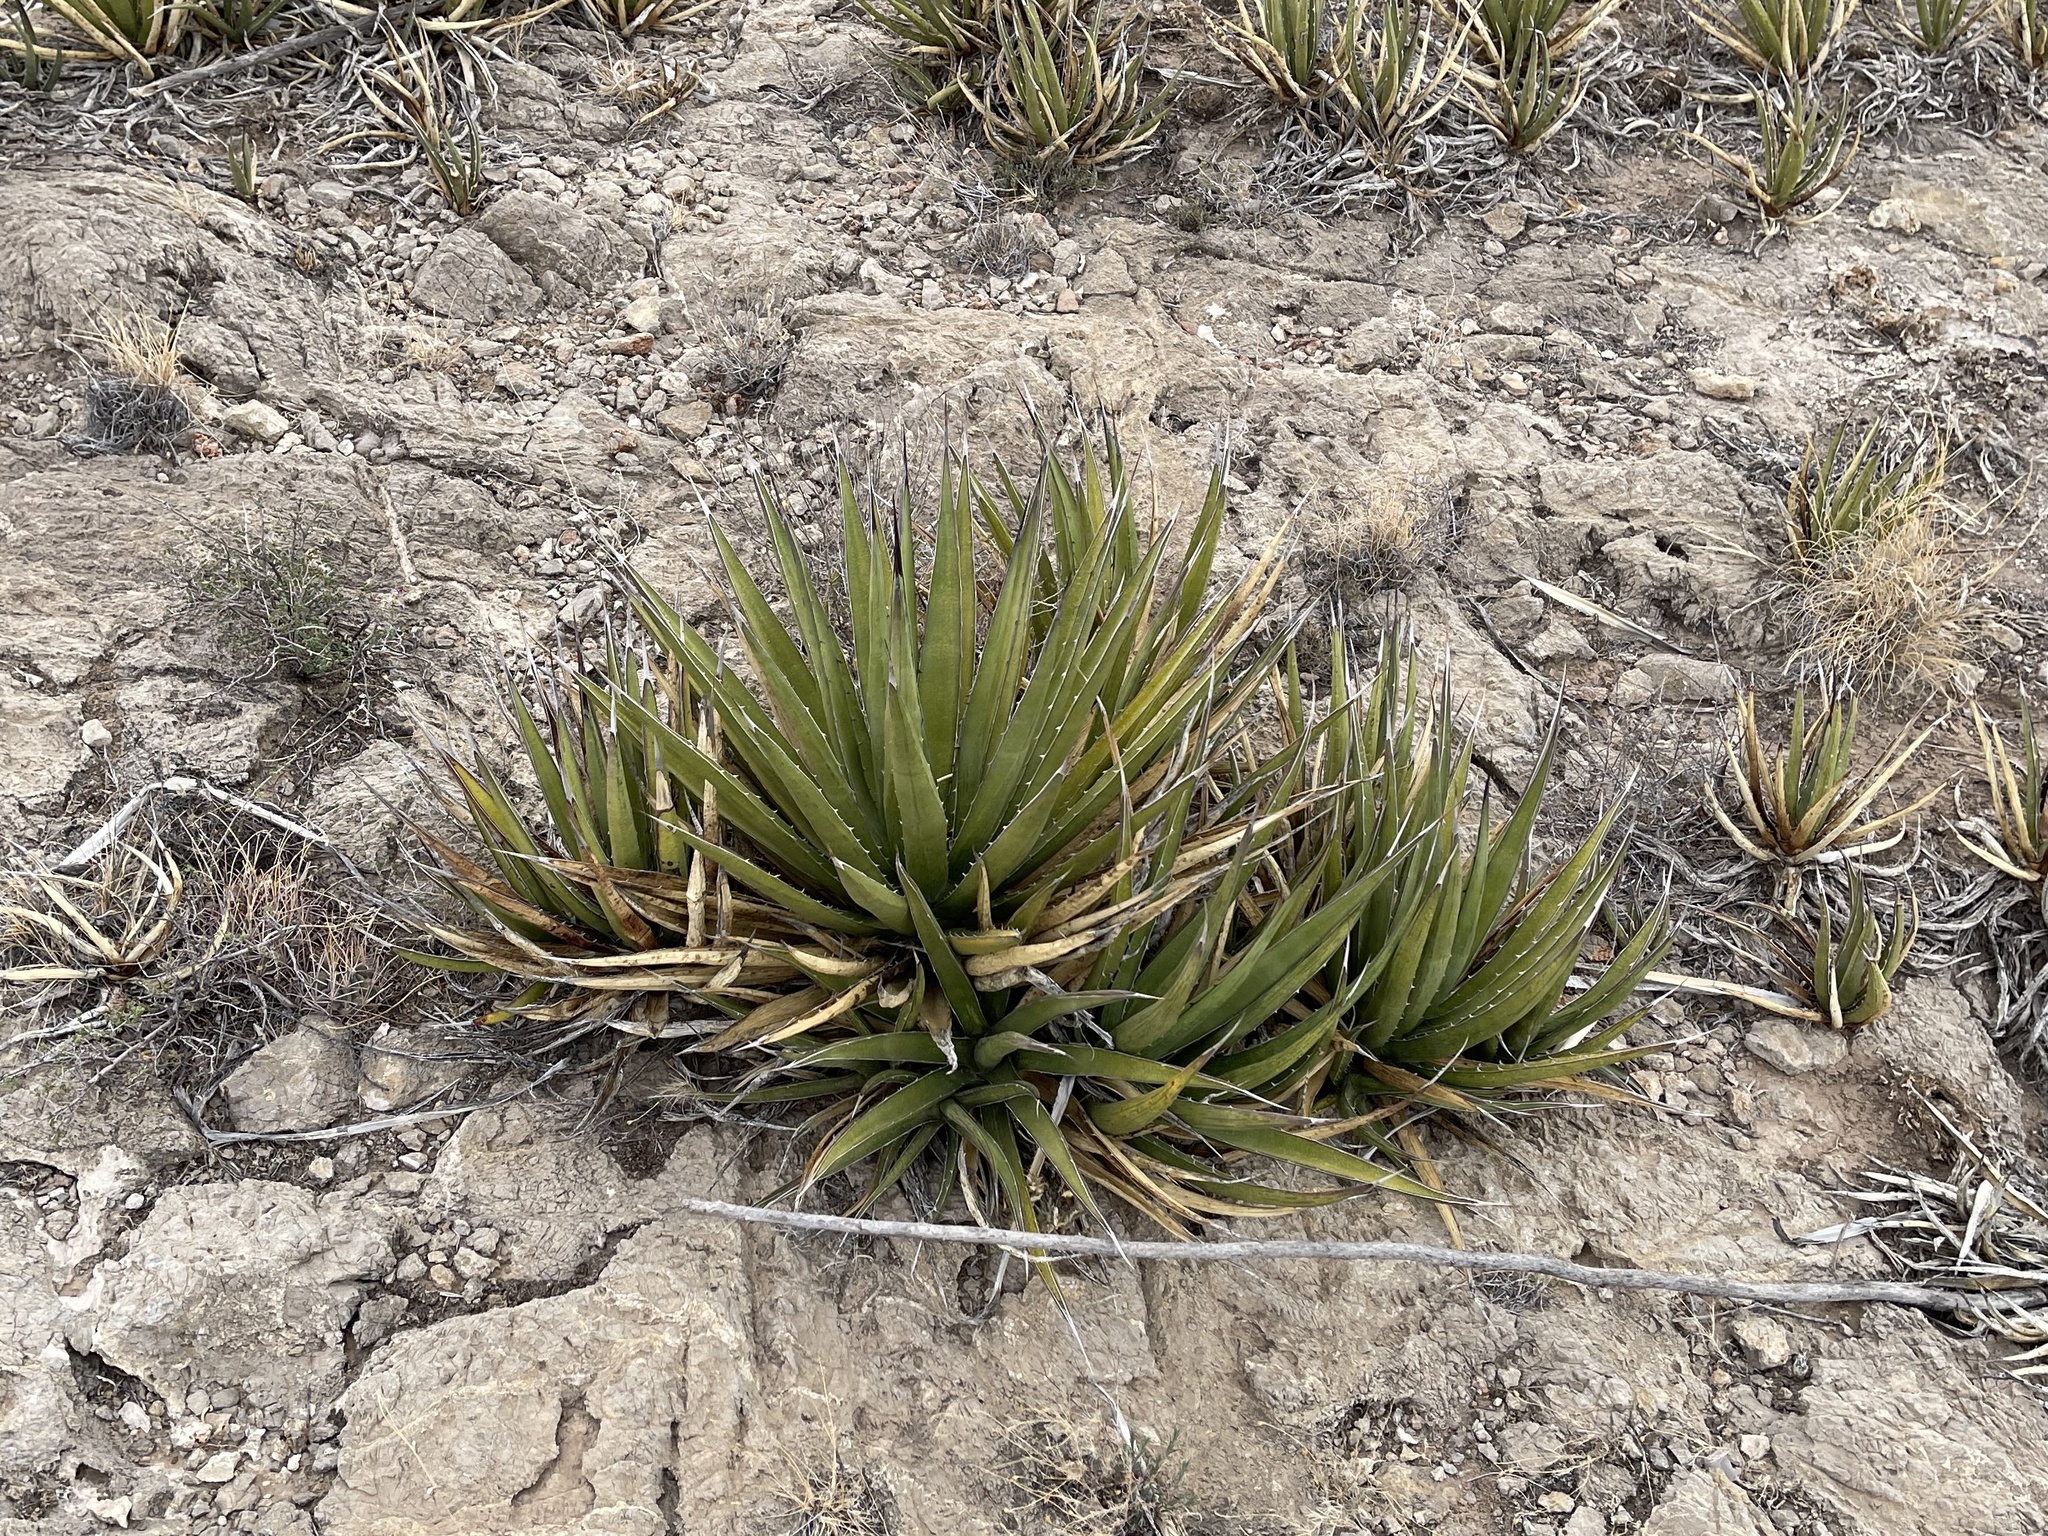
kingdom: Plantae
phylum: Tracheophyta
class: Liliopsida
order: Asparagales
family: Asparagaceae
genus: Agave
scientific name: Agave lechuguilla
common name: Lecheguilla agave
